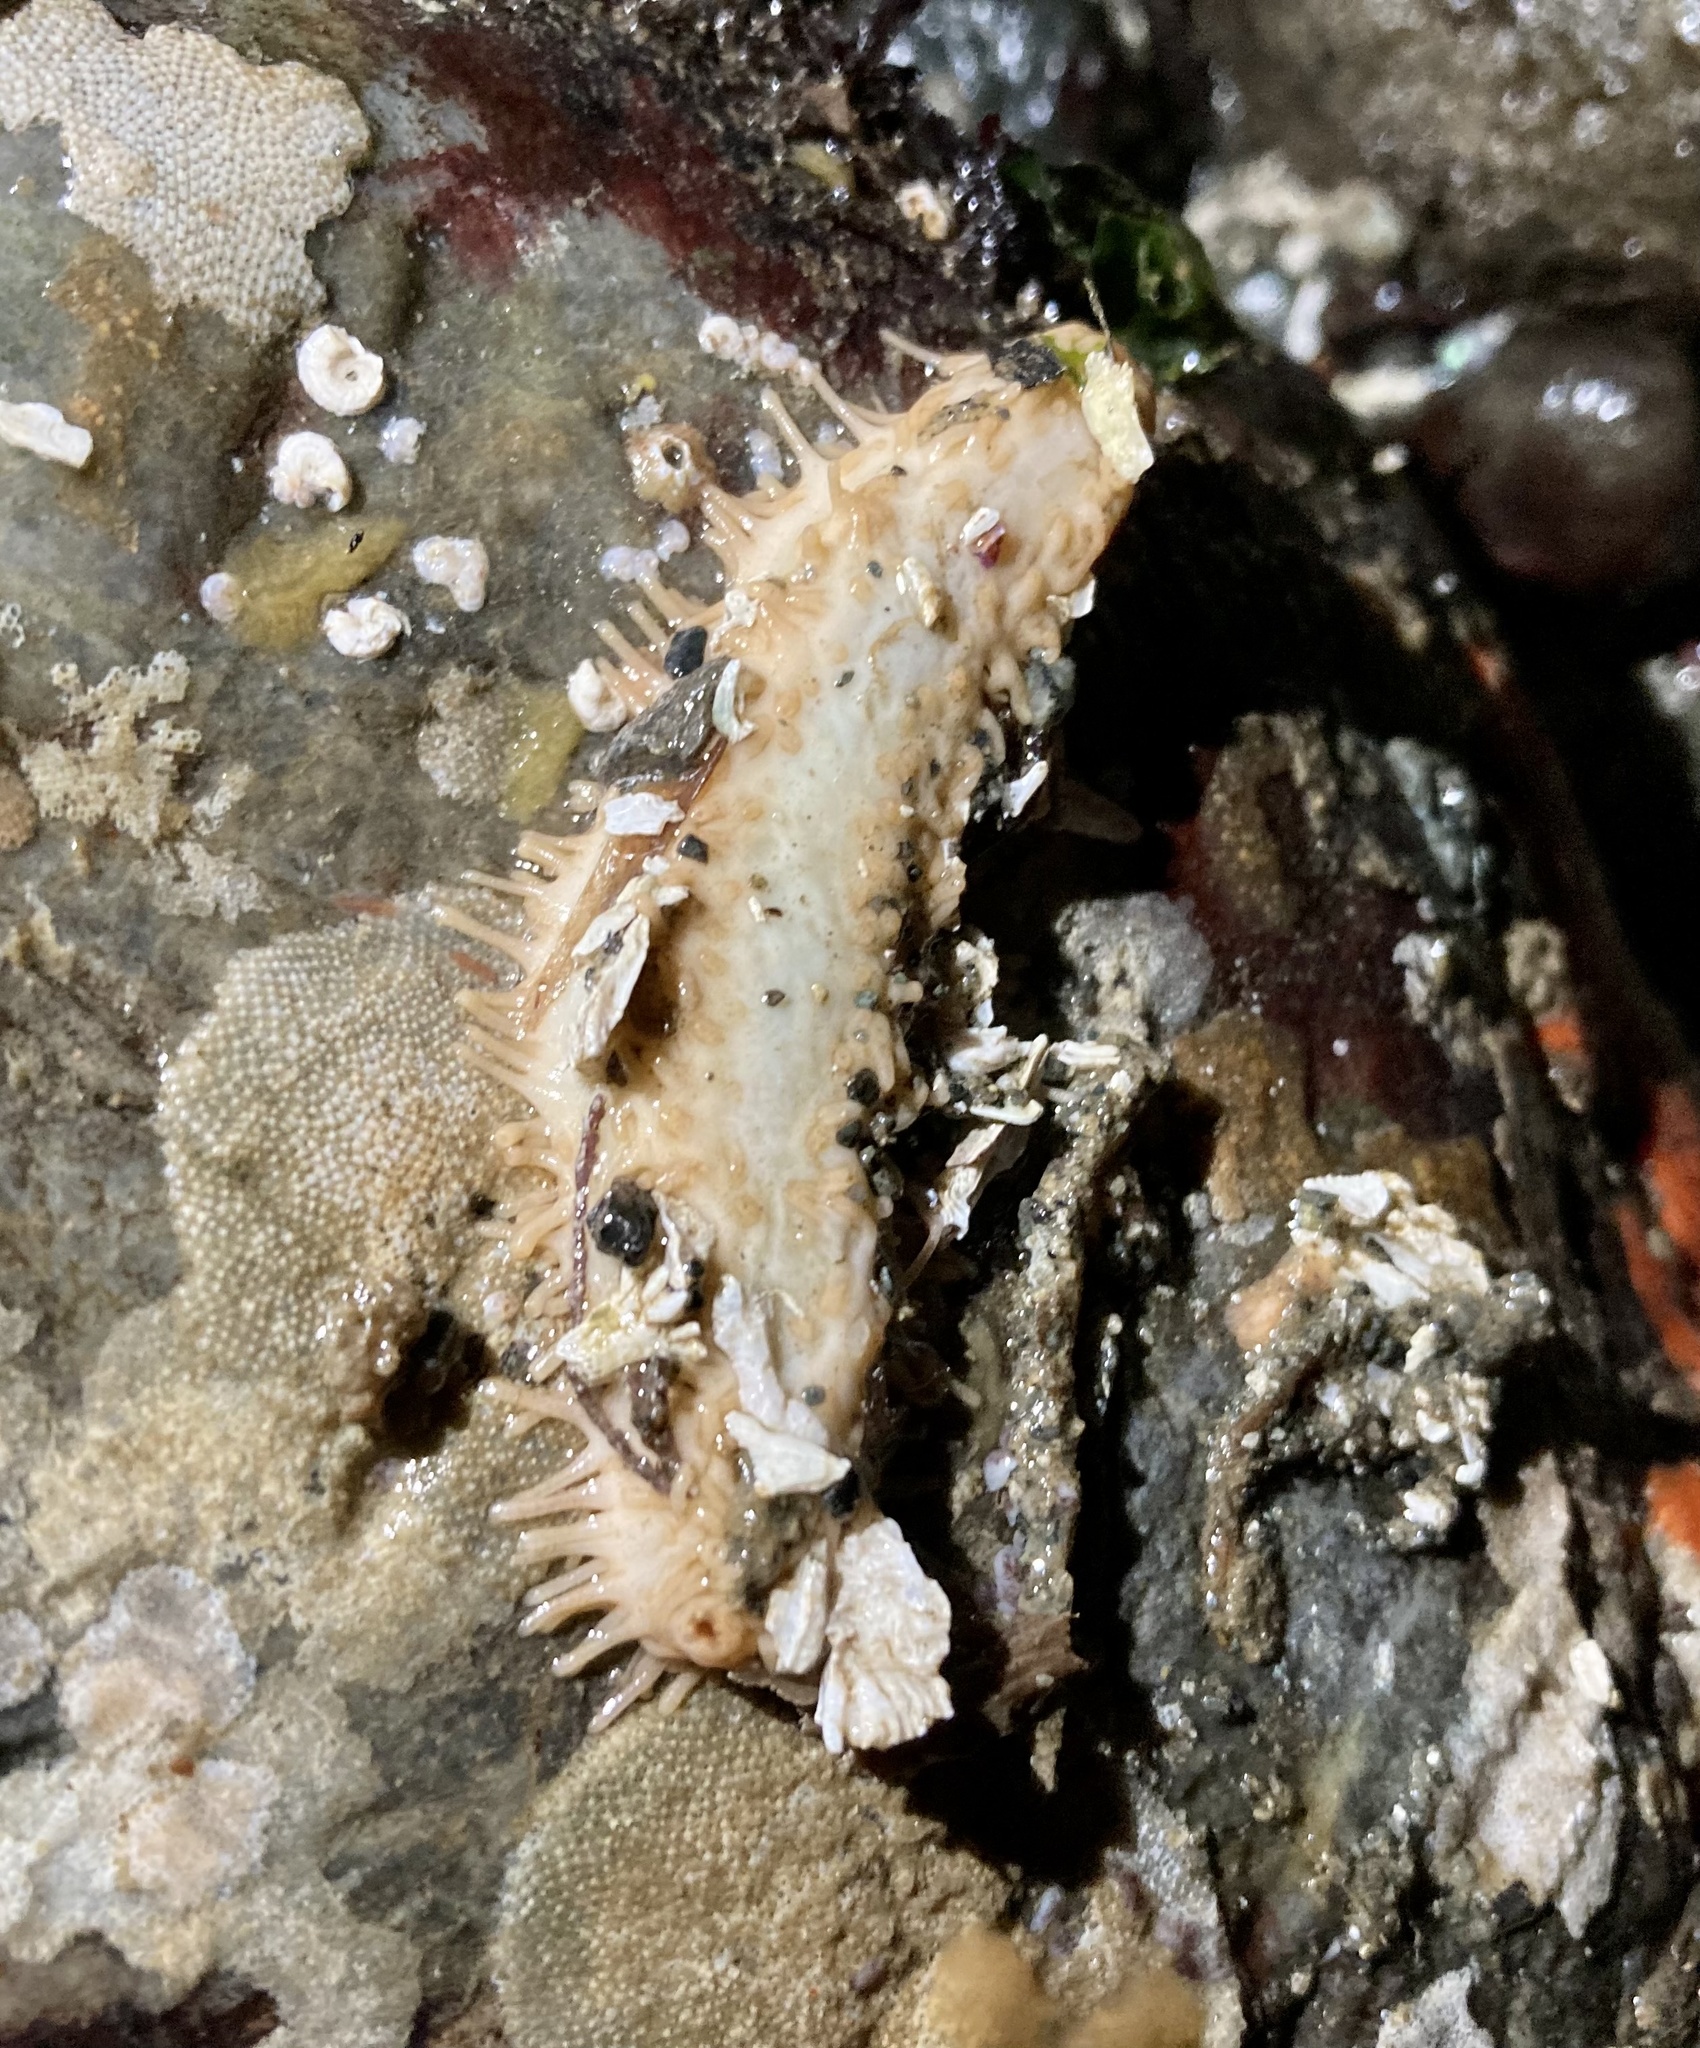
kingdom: Animalia
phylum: Echinodermata
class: Holothuroidea
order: Dendrochirotida
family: Sclerodactylidae
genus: Eupentacta
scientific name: Eupentacta quinquesemita
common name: Pentamerous sea cucumber
